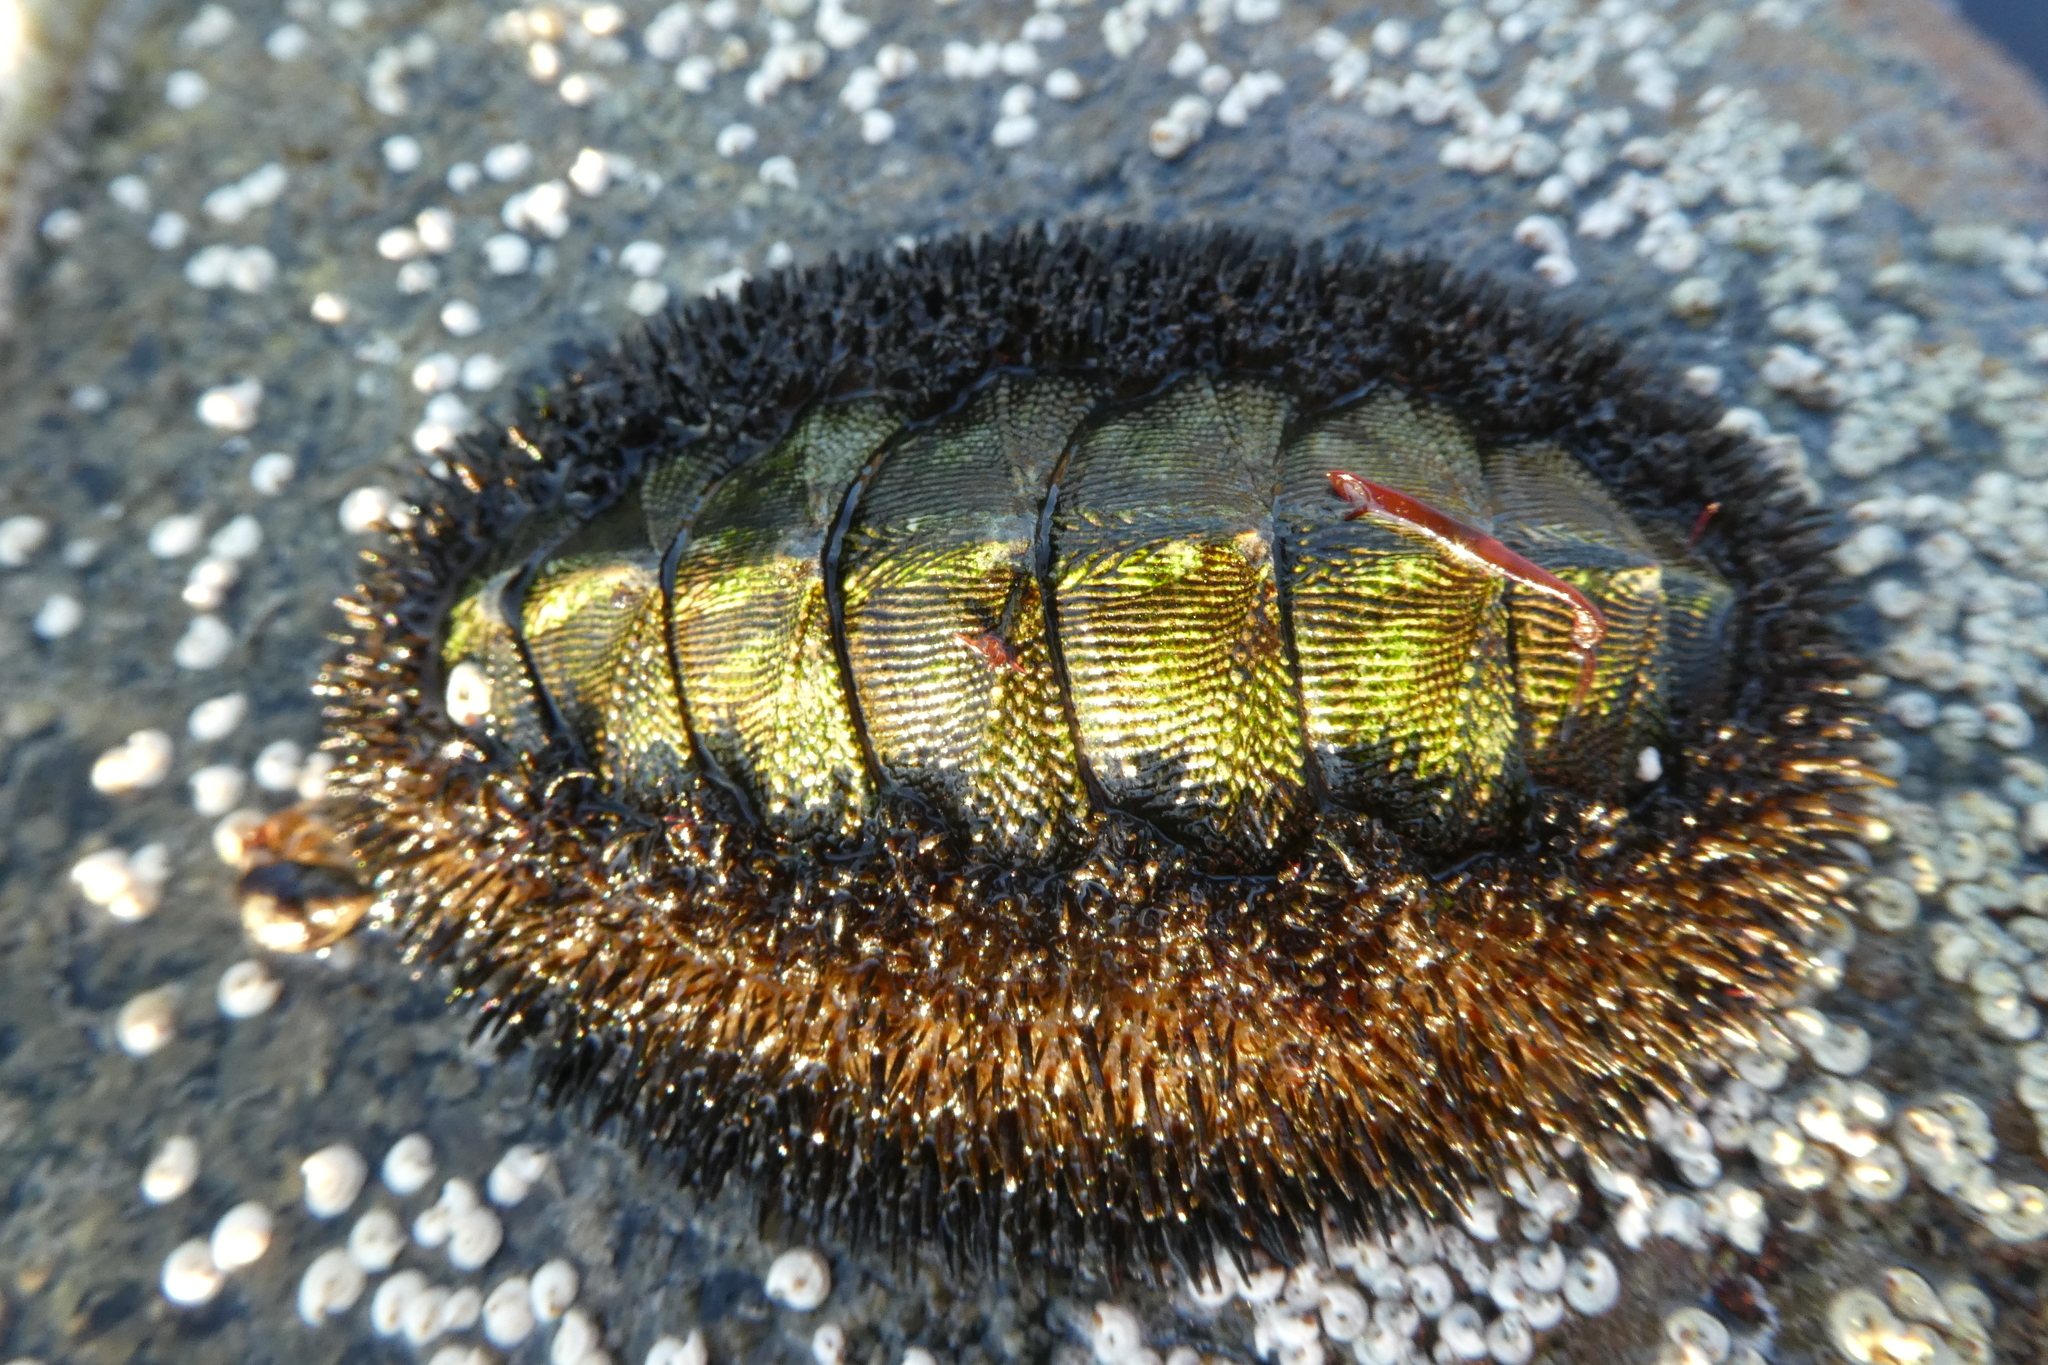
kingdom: Animalia
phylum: Mollusca
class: Polyplacophora
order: Chitonida
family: Mopaliidae
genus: Mopalia
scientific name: Mopalia muscosa
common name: Mossy chiton
